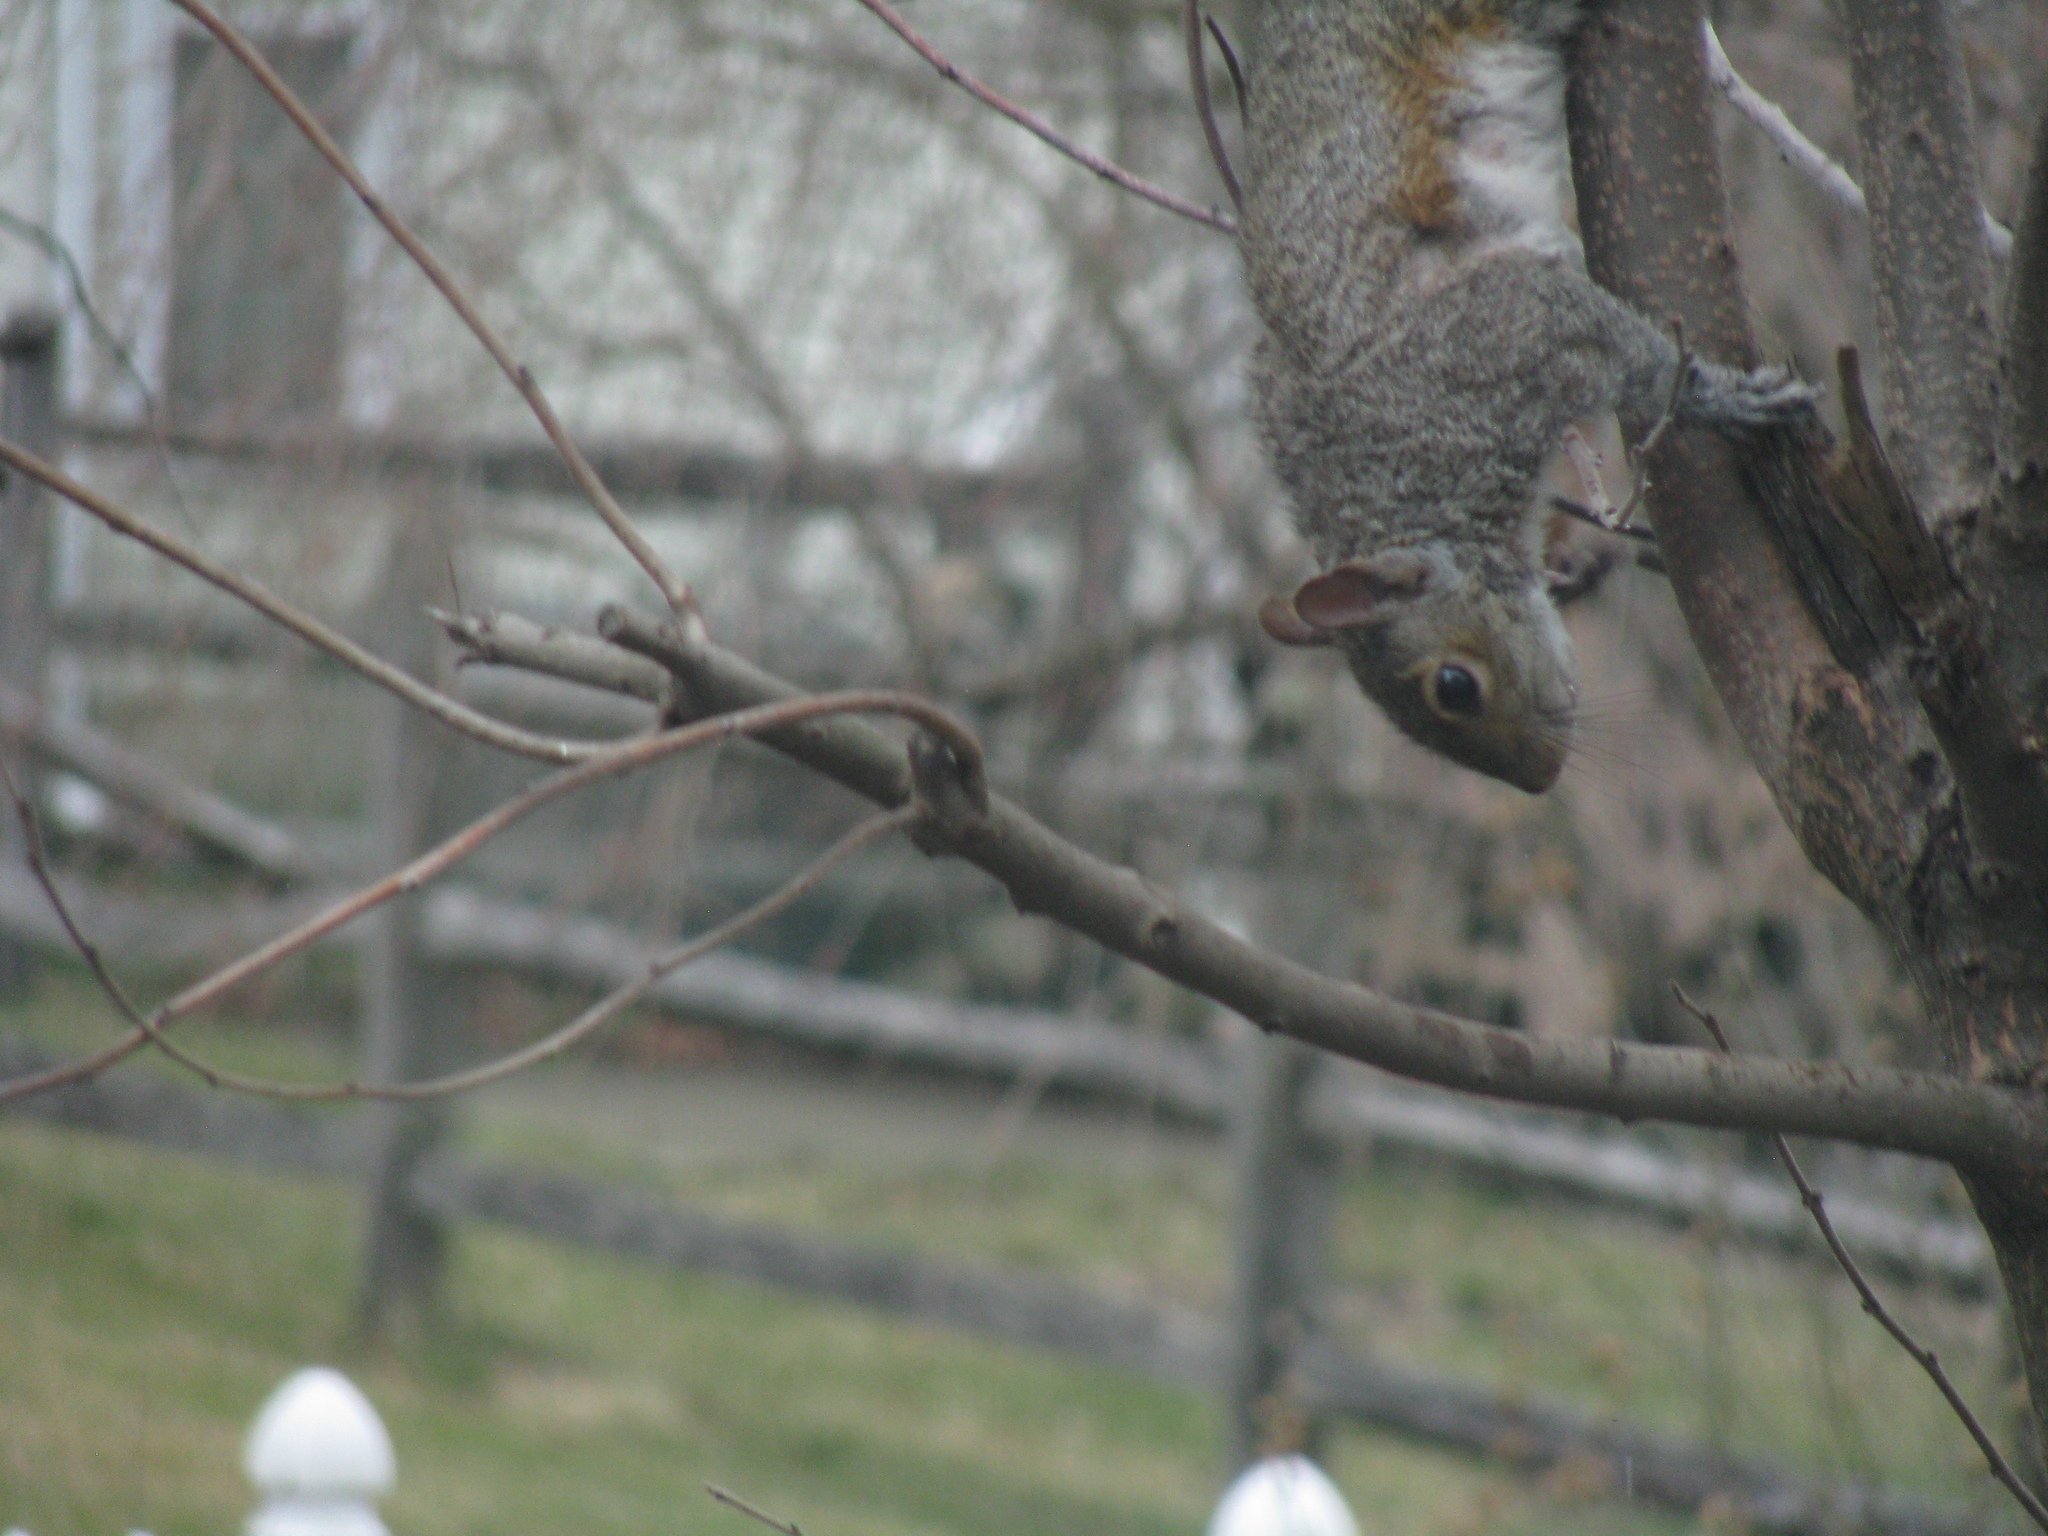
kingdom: Animalia
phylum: Chordata
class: Mammalia
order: Rodentia
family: Sciuridae
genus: Sciurus
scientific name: Sciurus carolinensis
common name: Eastern gray squirrel
